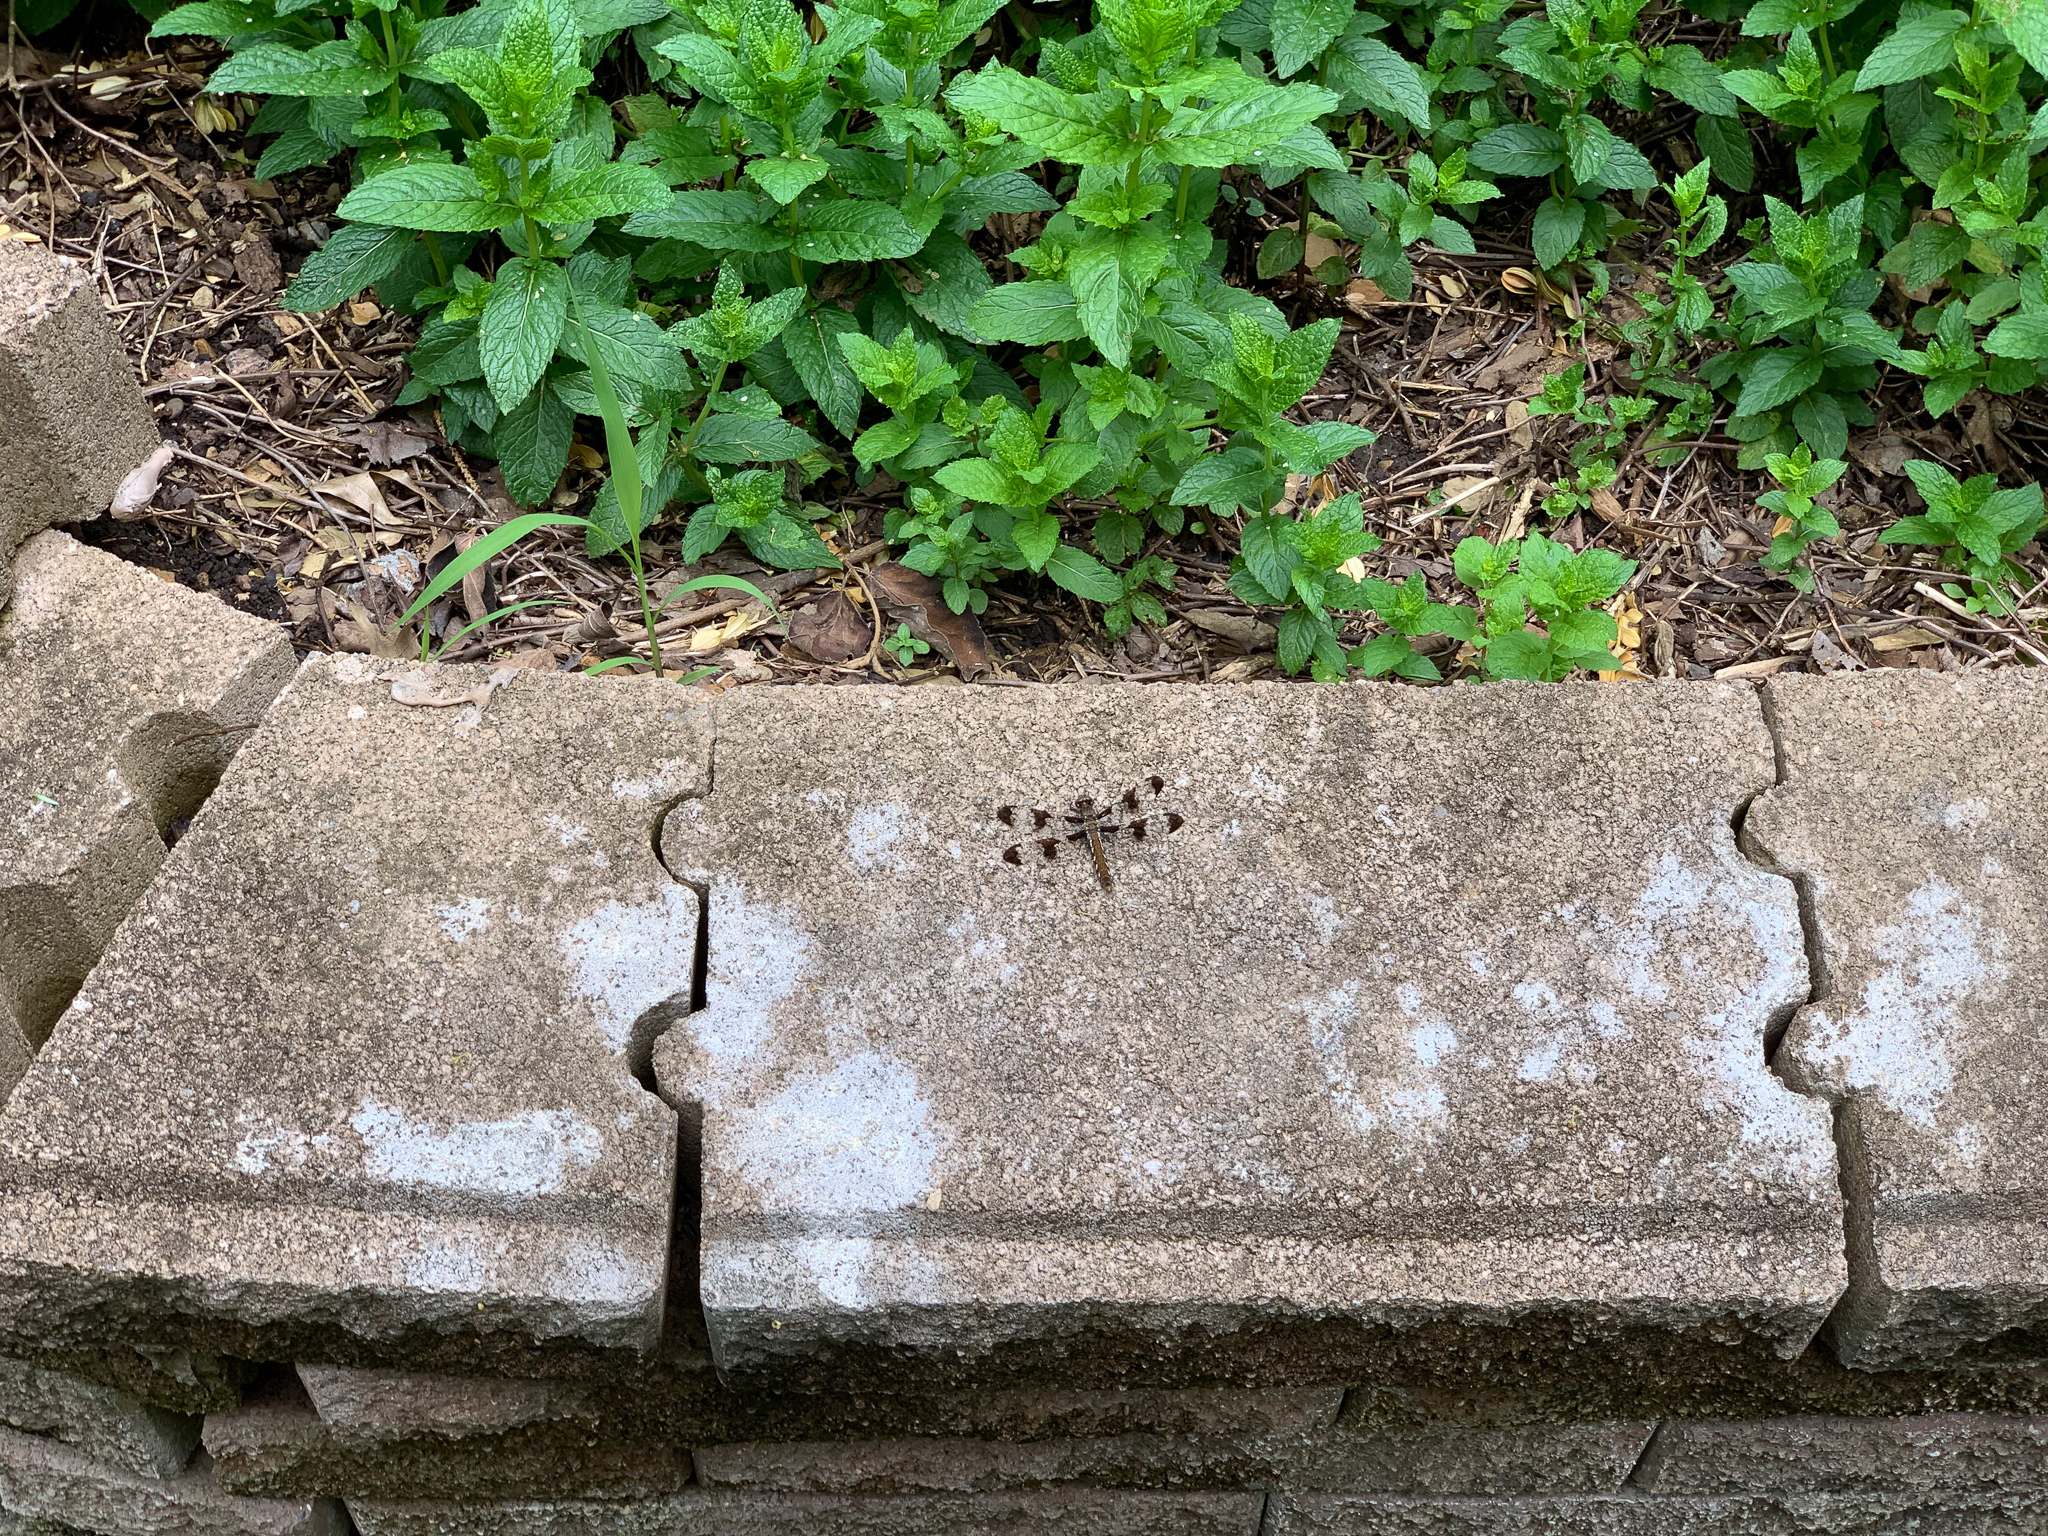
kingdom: Animalia
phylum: Arthropoda
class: Insecta
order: Odonata
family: Libellulidae
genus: Plathemis
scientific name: Plathemis lydia
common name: Common whitetail
